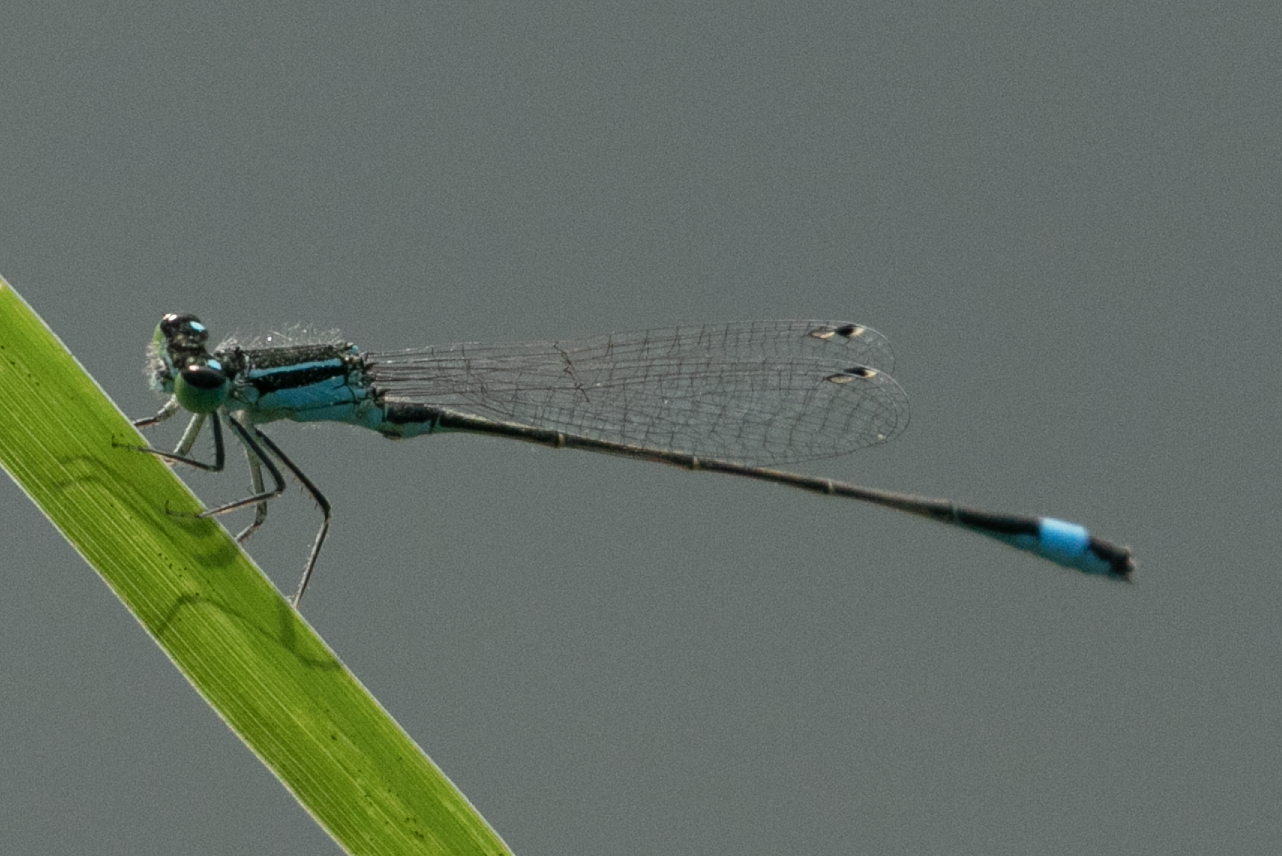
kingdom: Animalia
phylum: Arthropoda
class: Insecta
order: Odonata
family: Coenagrionidae
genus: Ischnura
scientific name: Ischnura elegans
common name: Blue-tailed damselfly
